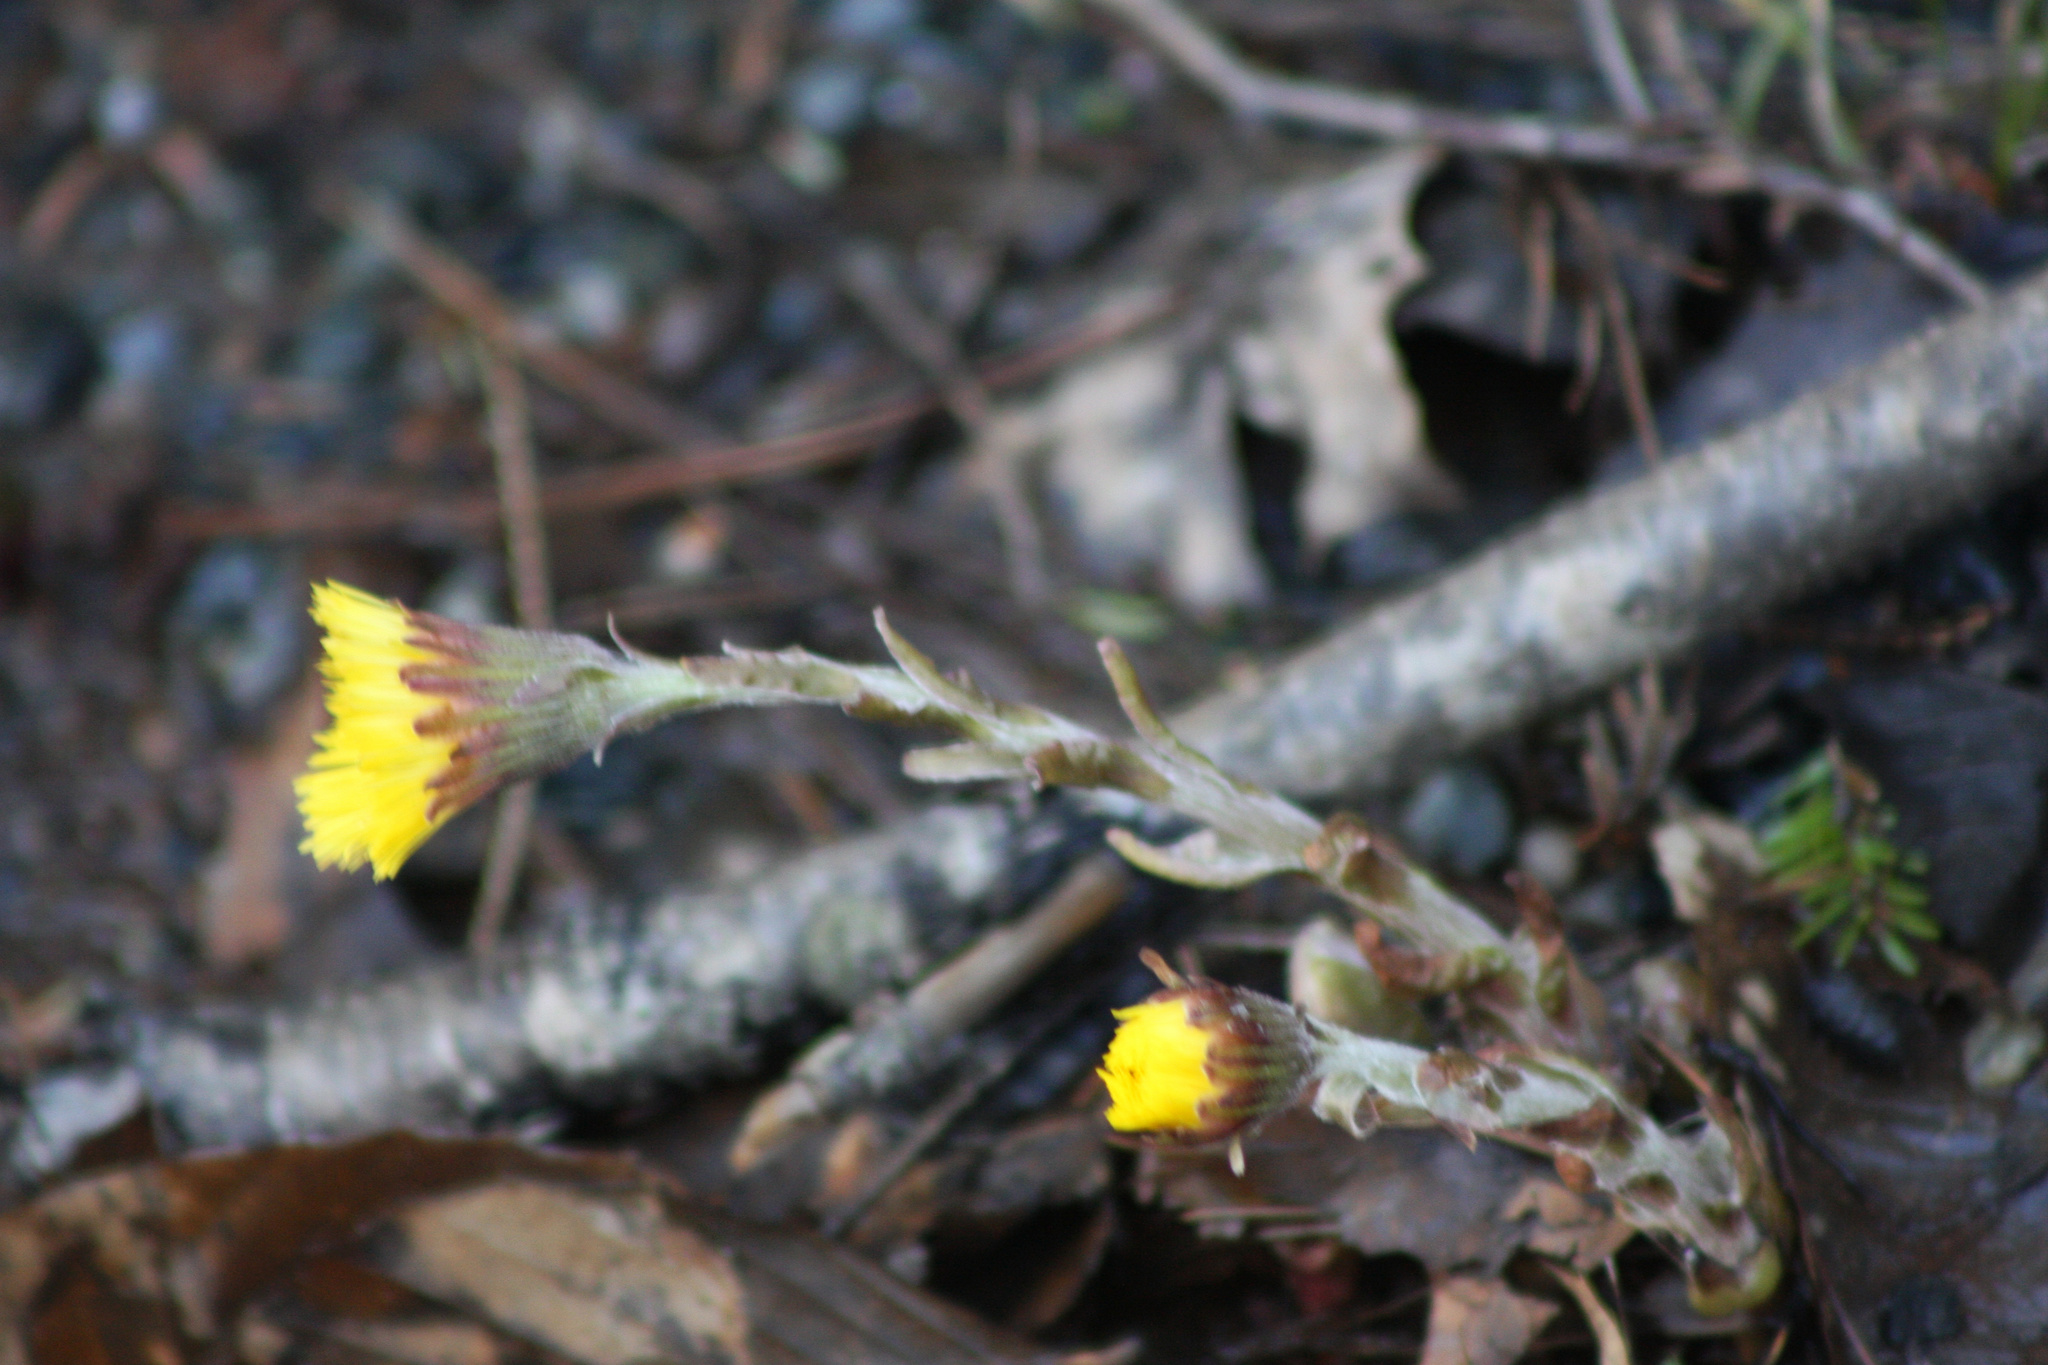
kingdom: Plantae
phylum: Tracheophyta
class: Magnoliopsida
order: Asterales
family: Asteraceae
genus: Tussilago
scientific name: Tussilago farfara
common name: Coltsfoot
